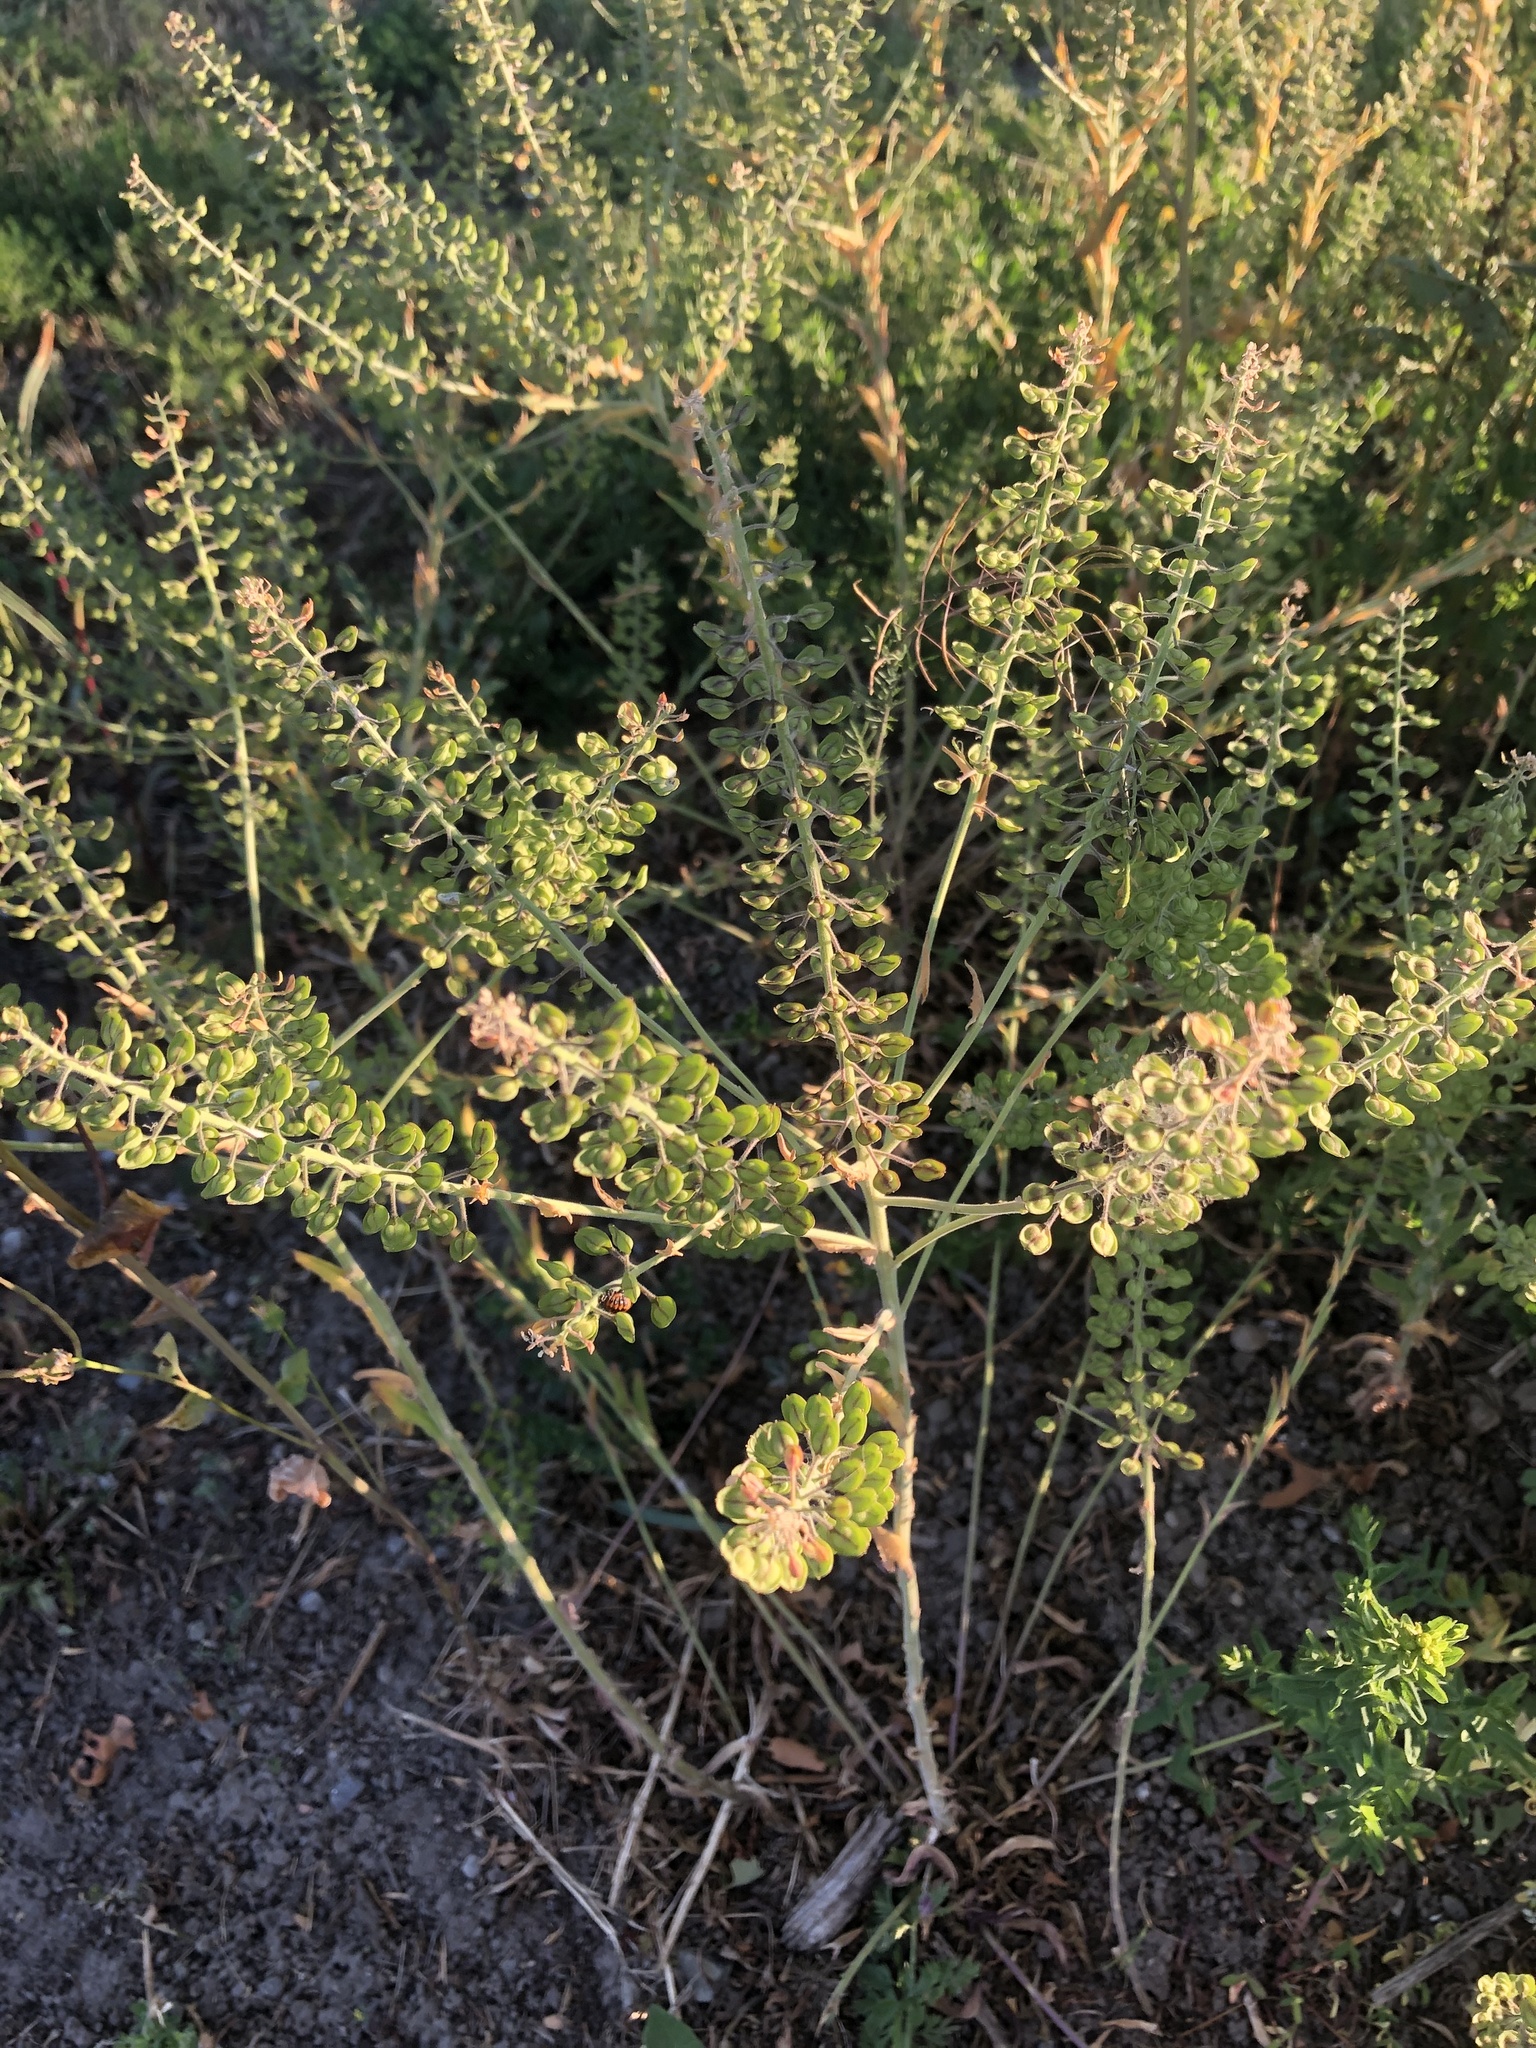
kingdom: Plantae
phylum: Tracheophyta
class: Magnoliopsida
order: Brassicales
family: Brassicaceae
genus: Lepidium
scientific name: Lepidium campestre
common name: Field pepperwort
